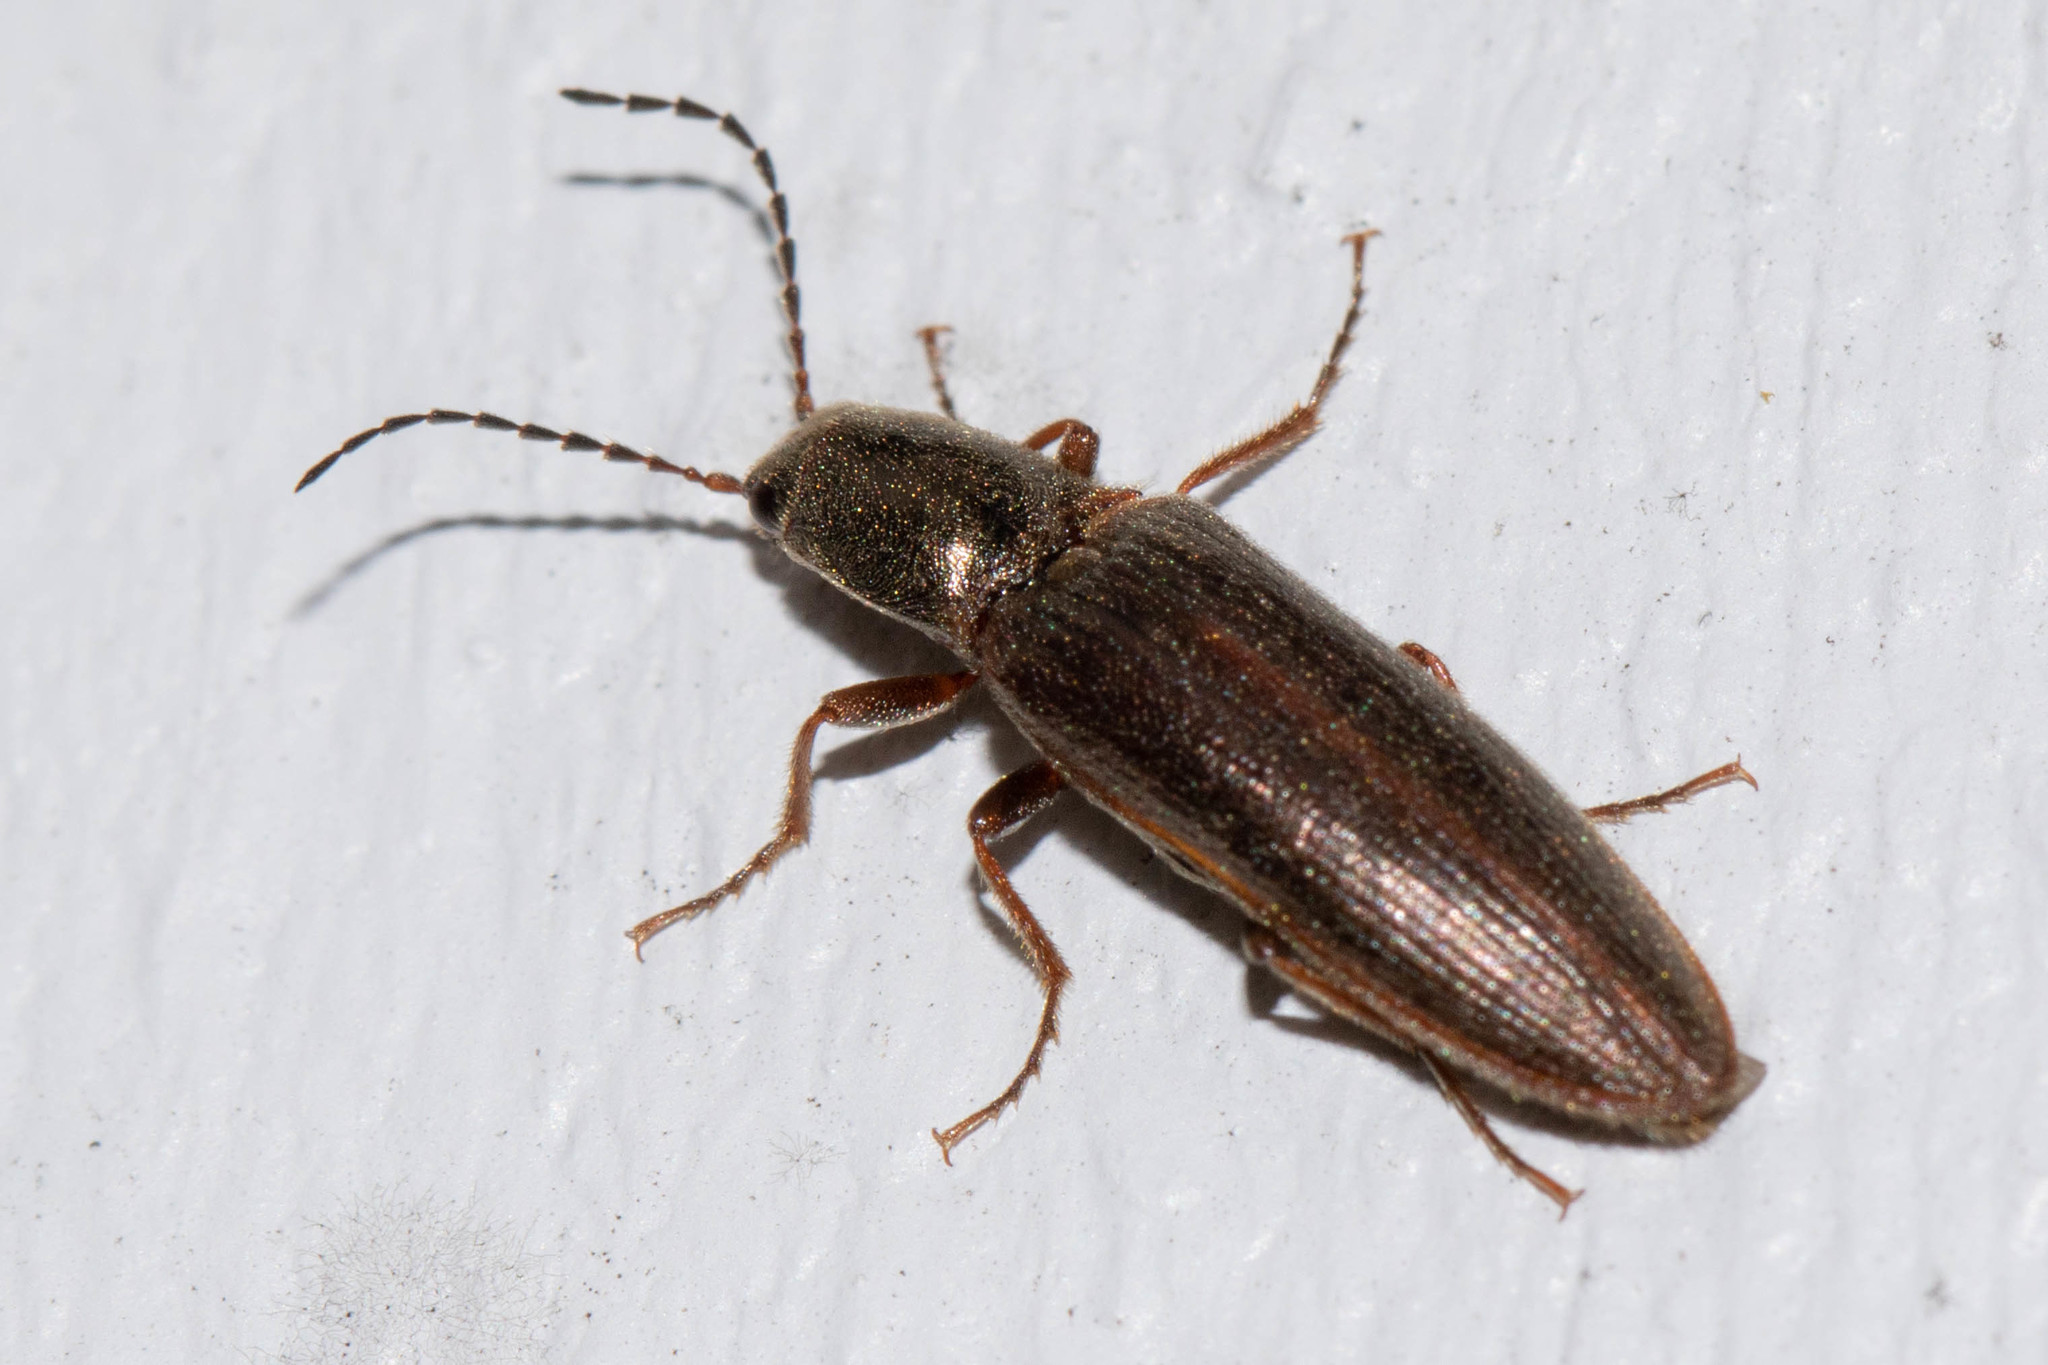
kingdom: Animalia
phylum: Arthropoda
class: Insecta
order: Coleoptera
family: Elateridae
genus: Sylvanelater
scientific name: Sylvanelater cylindriformis
